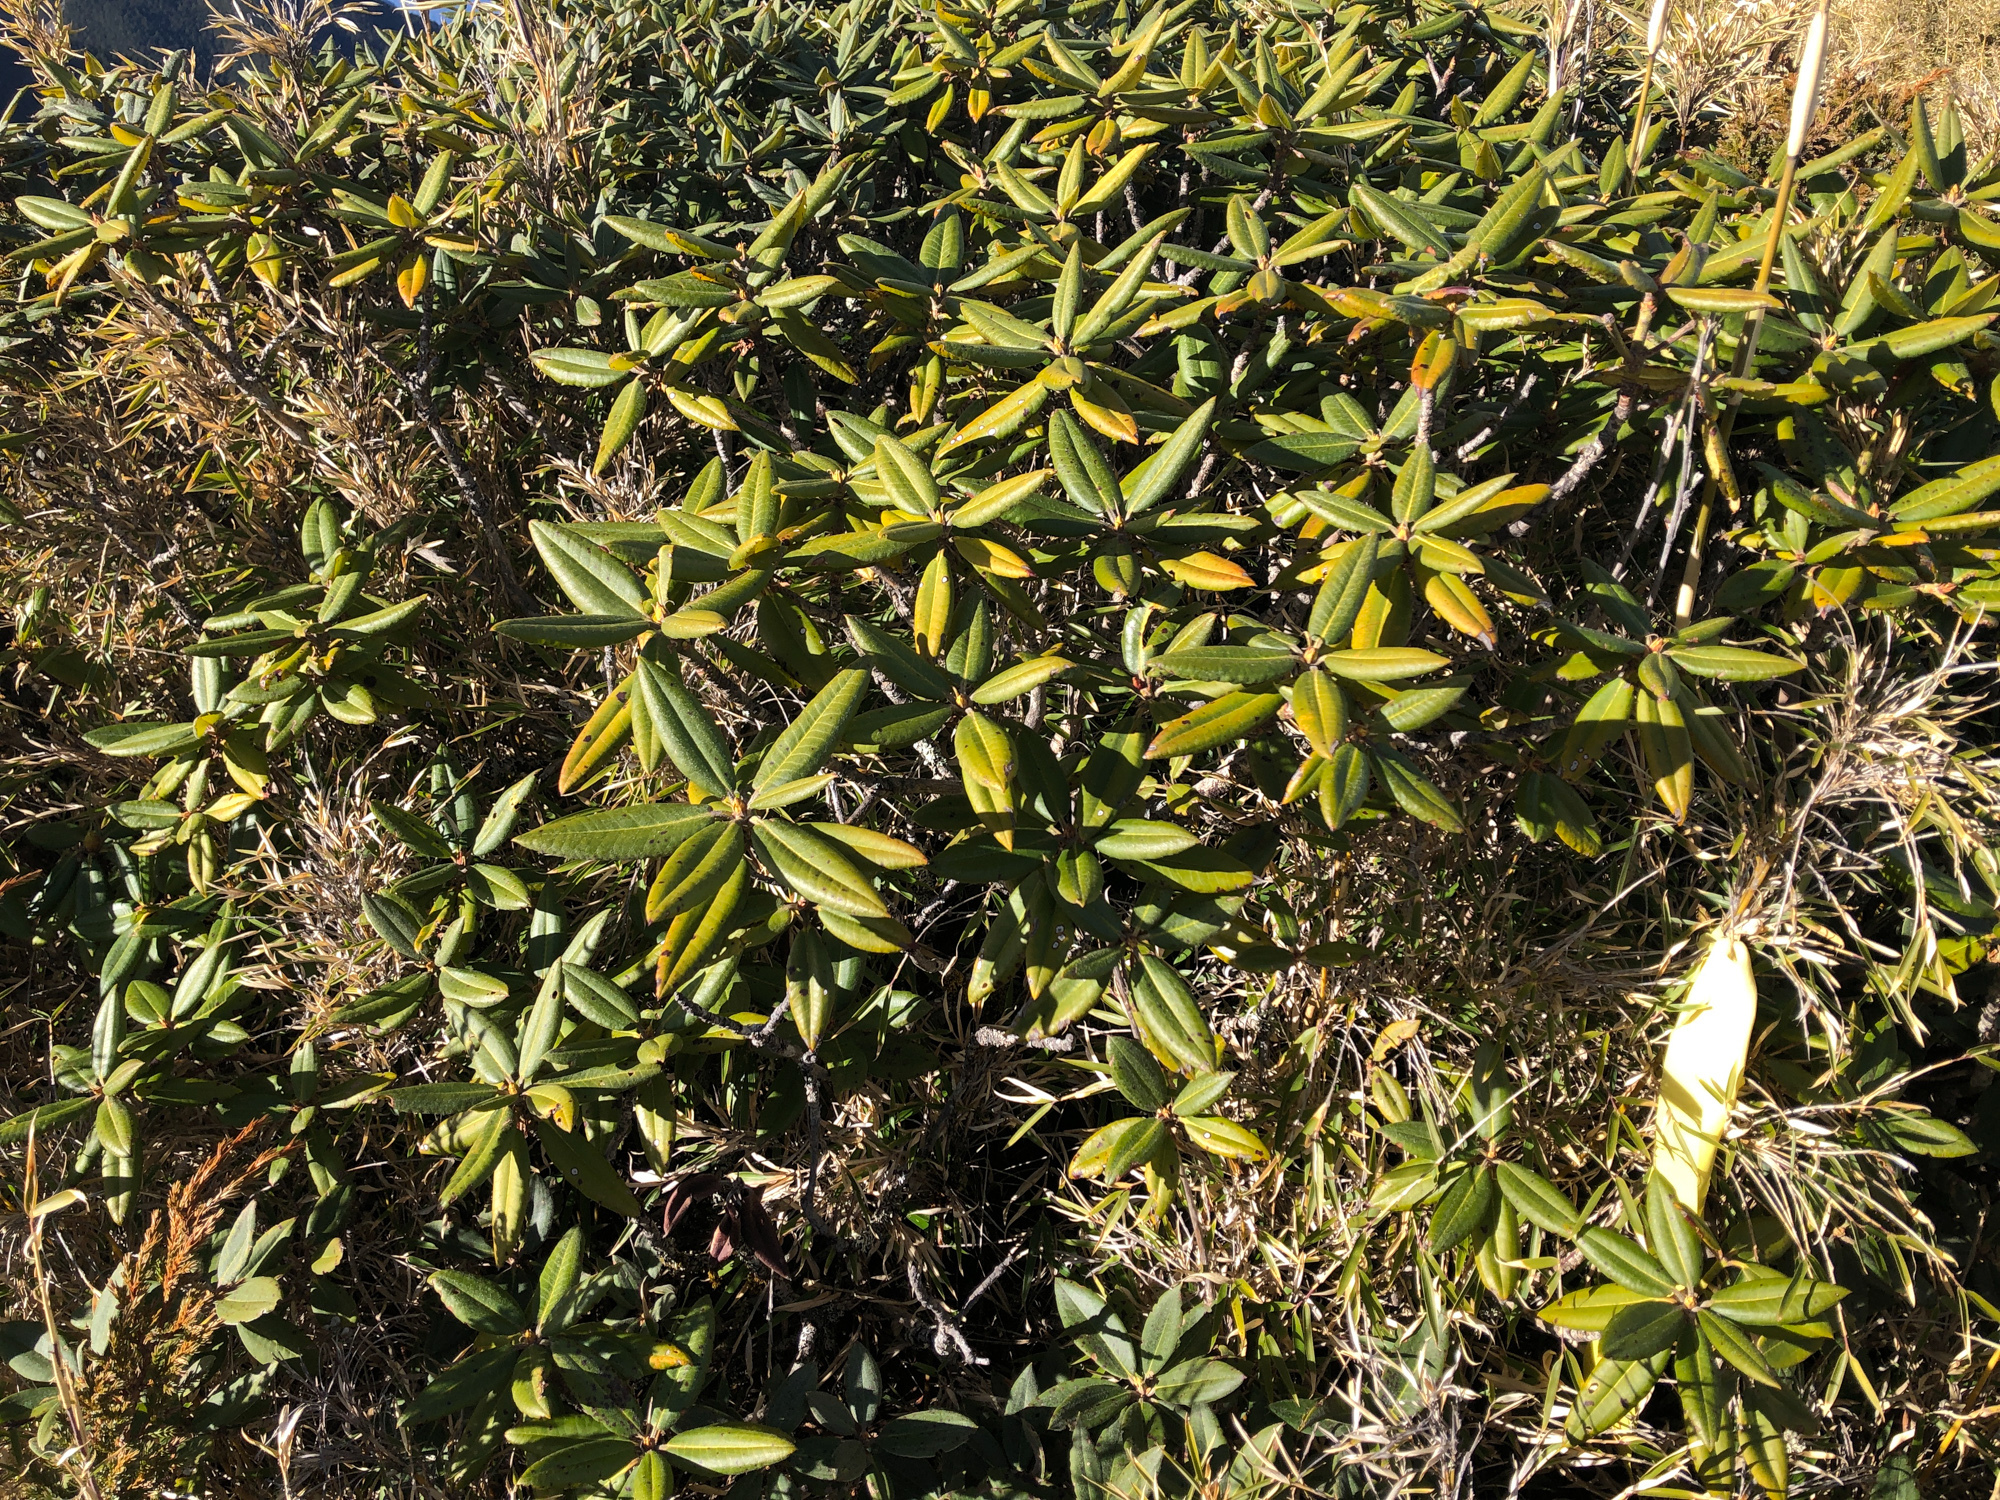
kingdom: Plantae
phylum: Tracheophyta
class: Magnoliopsida
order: Ericales
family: Ericaceae
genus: Rhododendron
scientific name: Rhododendron pseudochrysanthum
